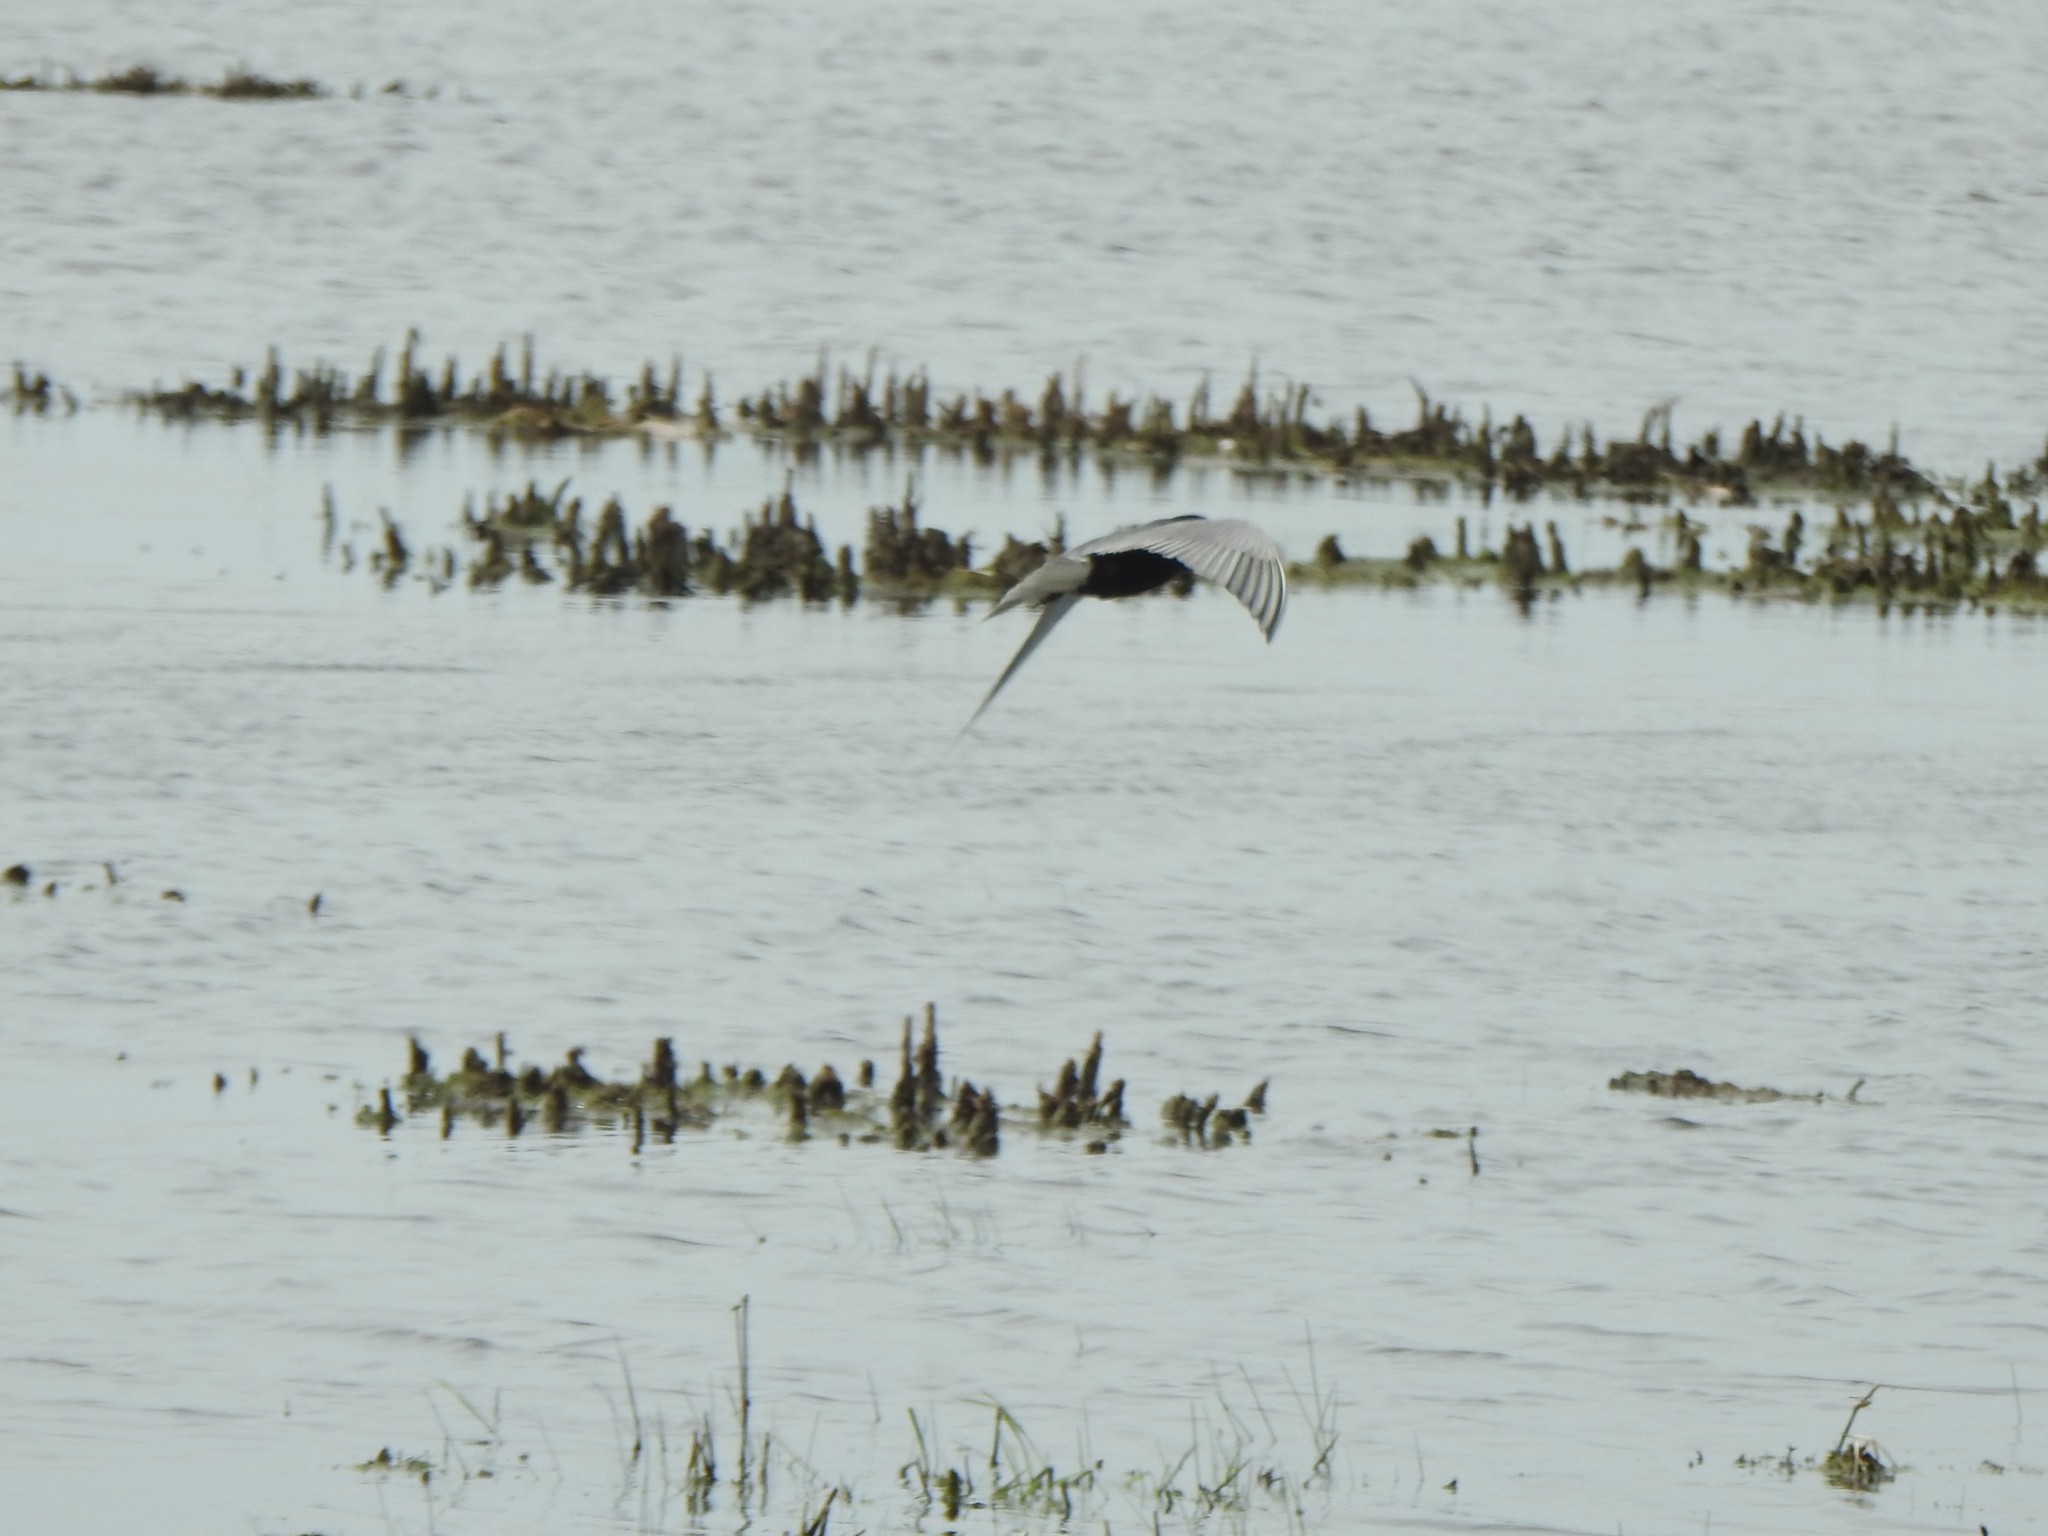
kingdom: Animalia
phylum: Chordata
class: Aves
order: Charadriiformes
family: Laridae
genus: Chlidonias
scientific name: Chlidonias niger
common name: Black tern
